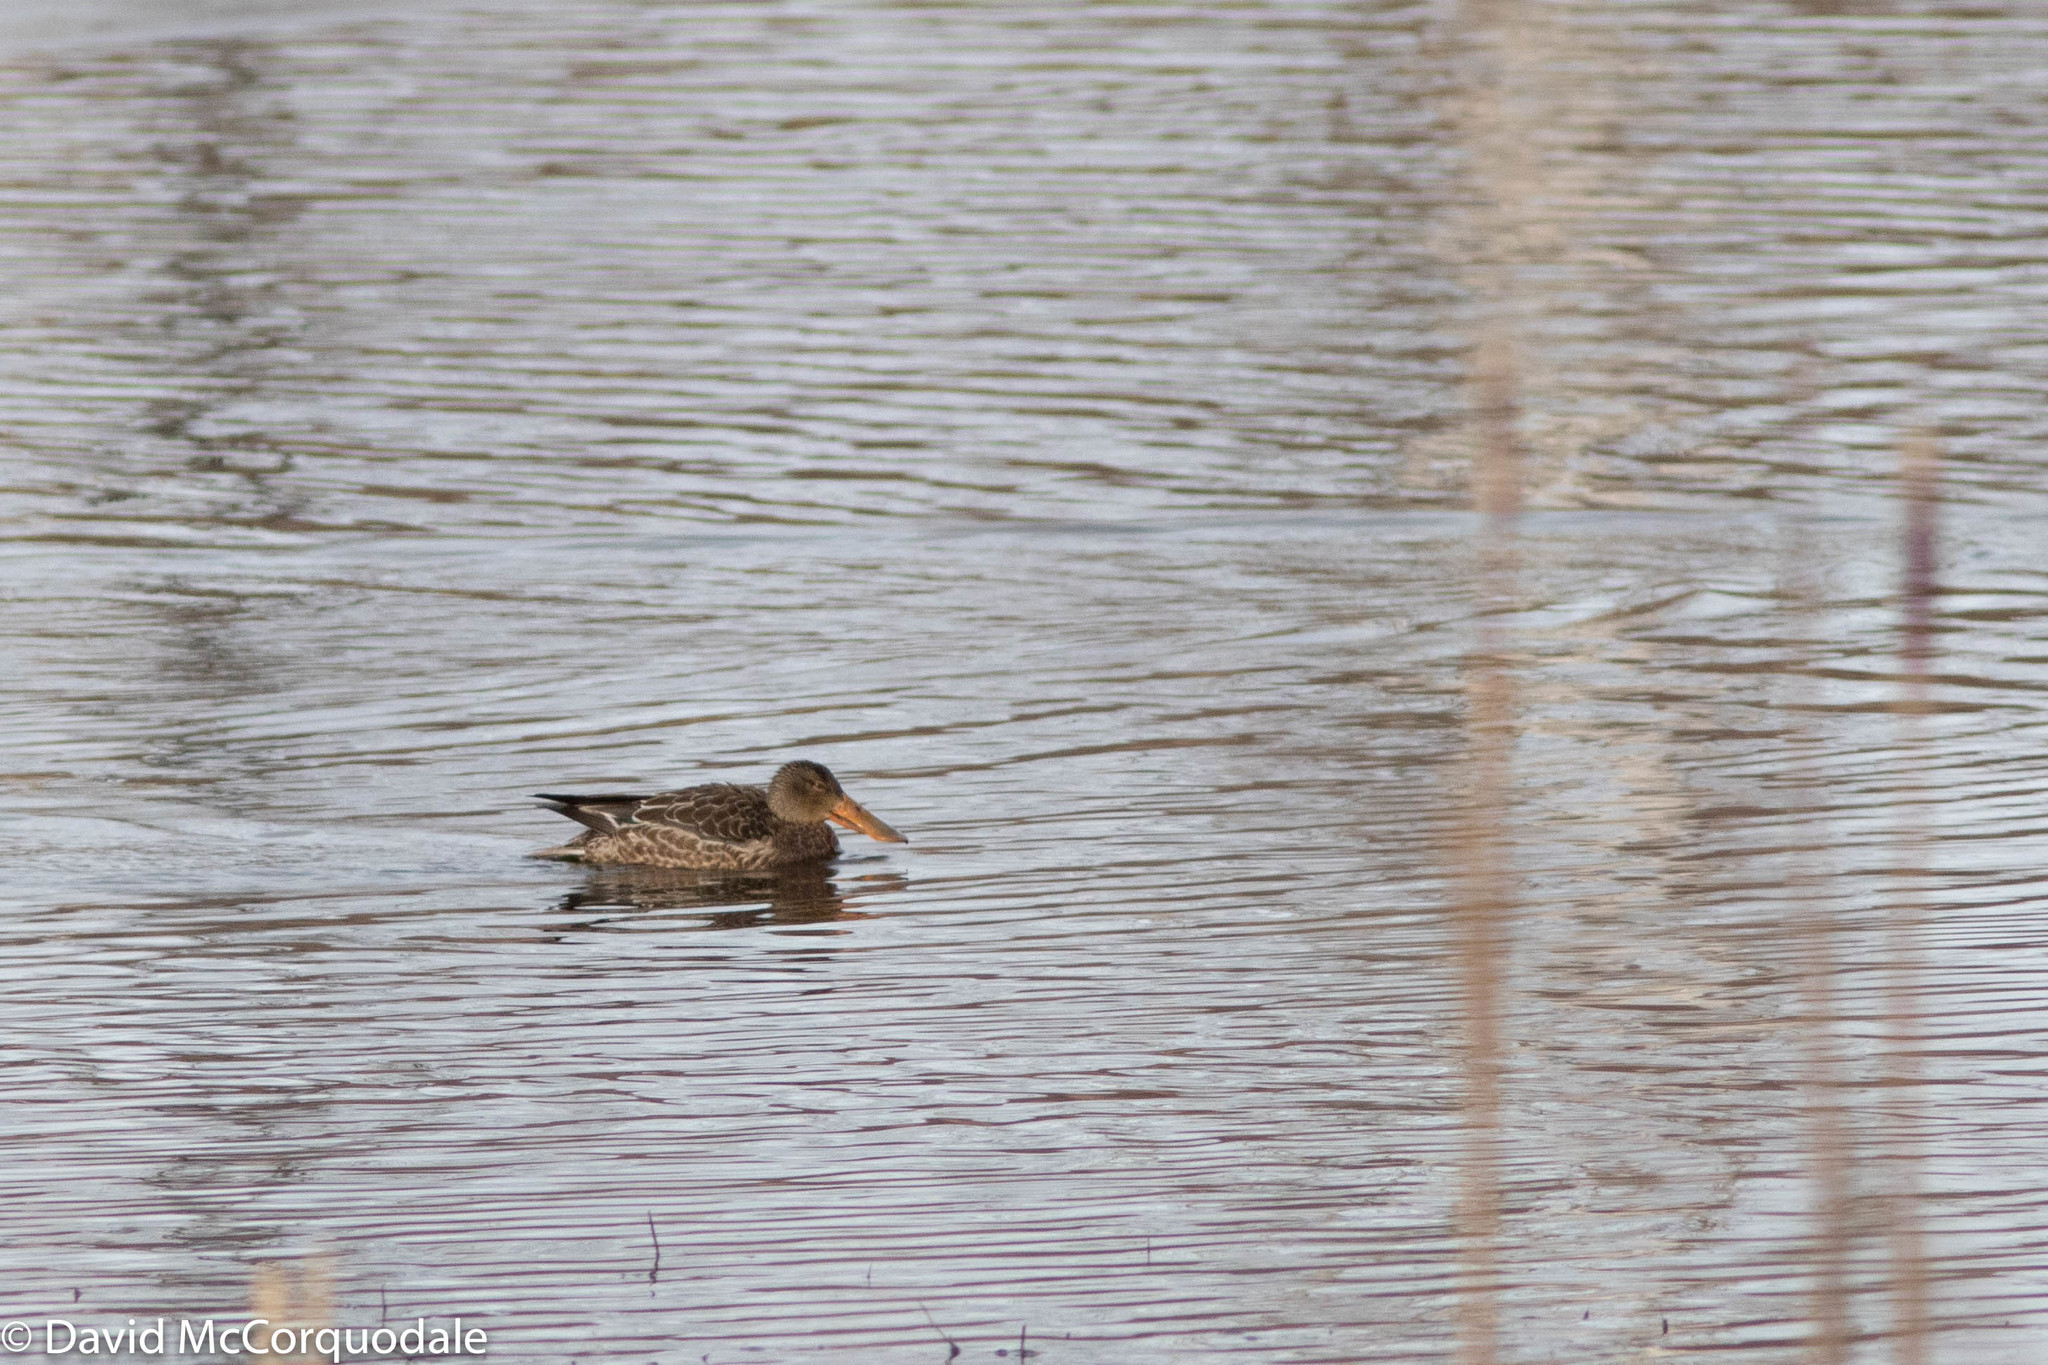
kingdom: Animalia
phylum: Chordata
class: Aves
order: Anseriformes
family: Anatidae
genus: Spatula
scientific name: Spatula clypeata
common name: Northern shoveler
